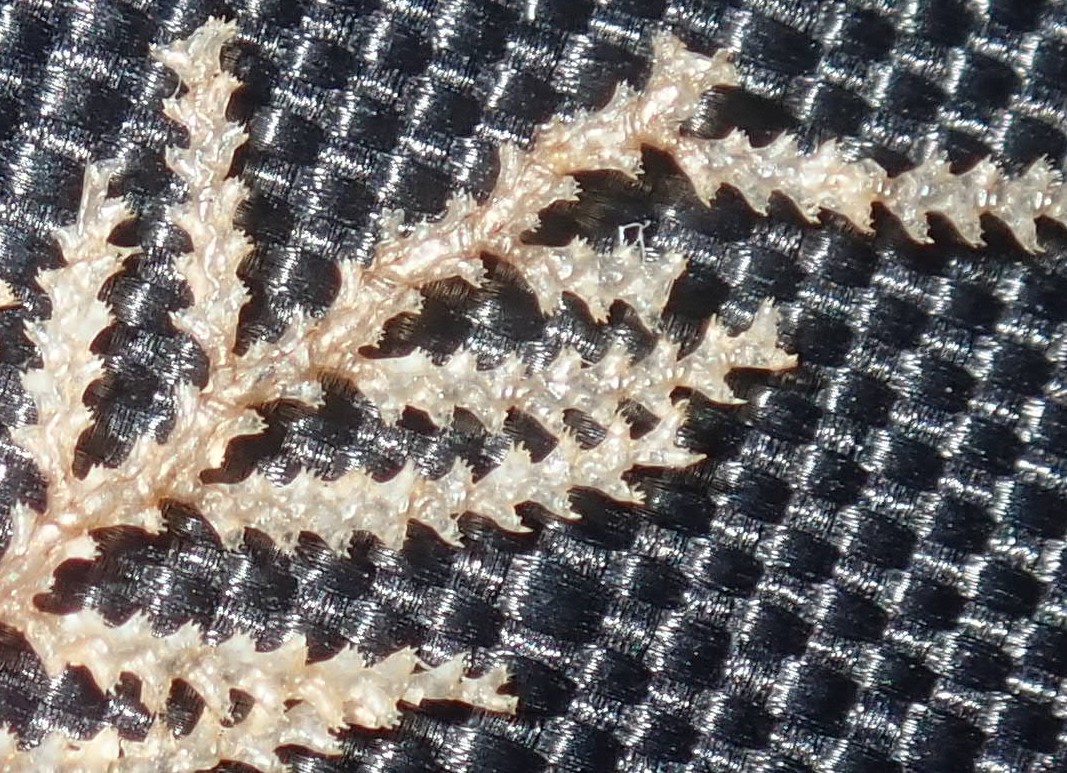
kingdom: Animalia
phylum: Cnidaria
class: Hydrozoa
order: Leptothecata
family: Sertulariidae
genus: Stereotheca
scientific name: Stereotheca elongata
